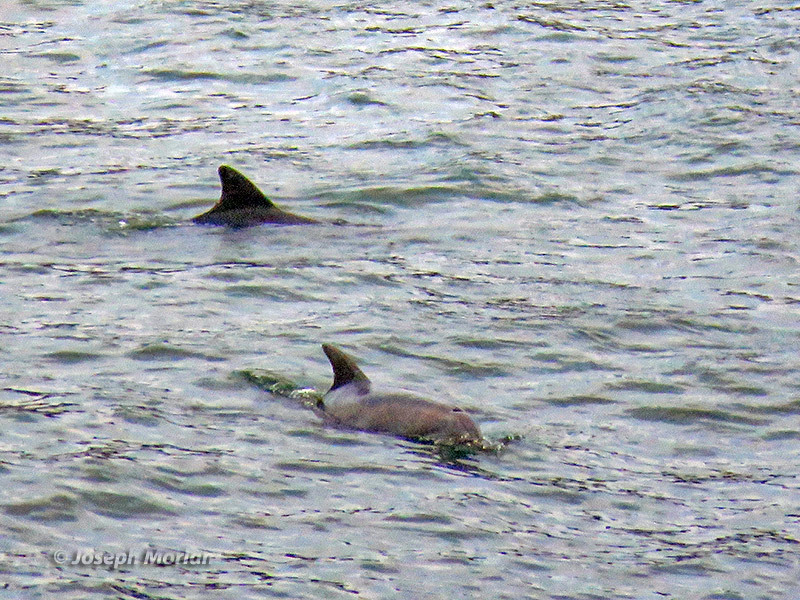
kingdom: Animalia
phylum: Chordata
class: Mammalia
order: Cetacea
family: Delphinidae
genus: Tursiops
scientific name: Tursiops truncatus
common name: Bottlenose dolphin
